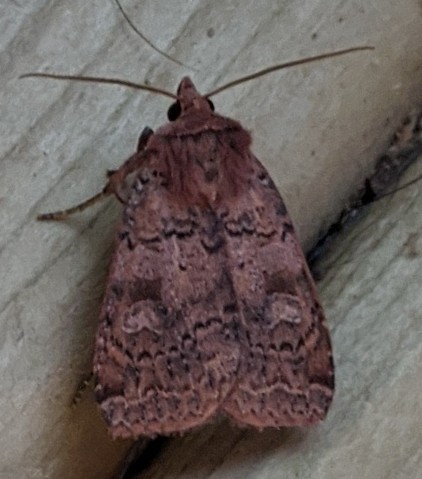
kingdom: Animalia
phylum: Arthropoda
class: Insecta
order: Lepidoptera
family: Noctuidae
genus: Diarsia
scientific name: Diarsia rubifera
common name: Red dart
